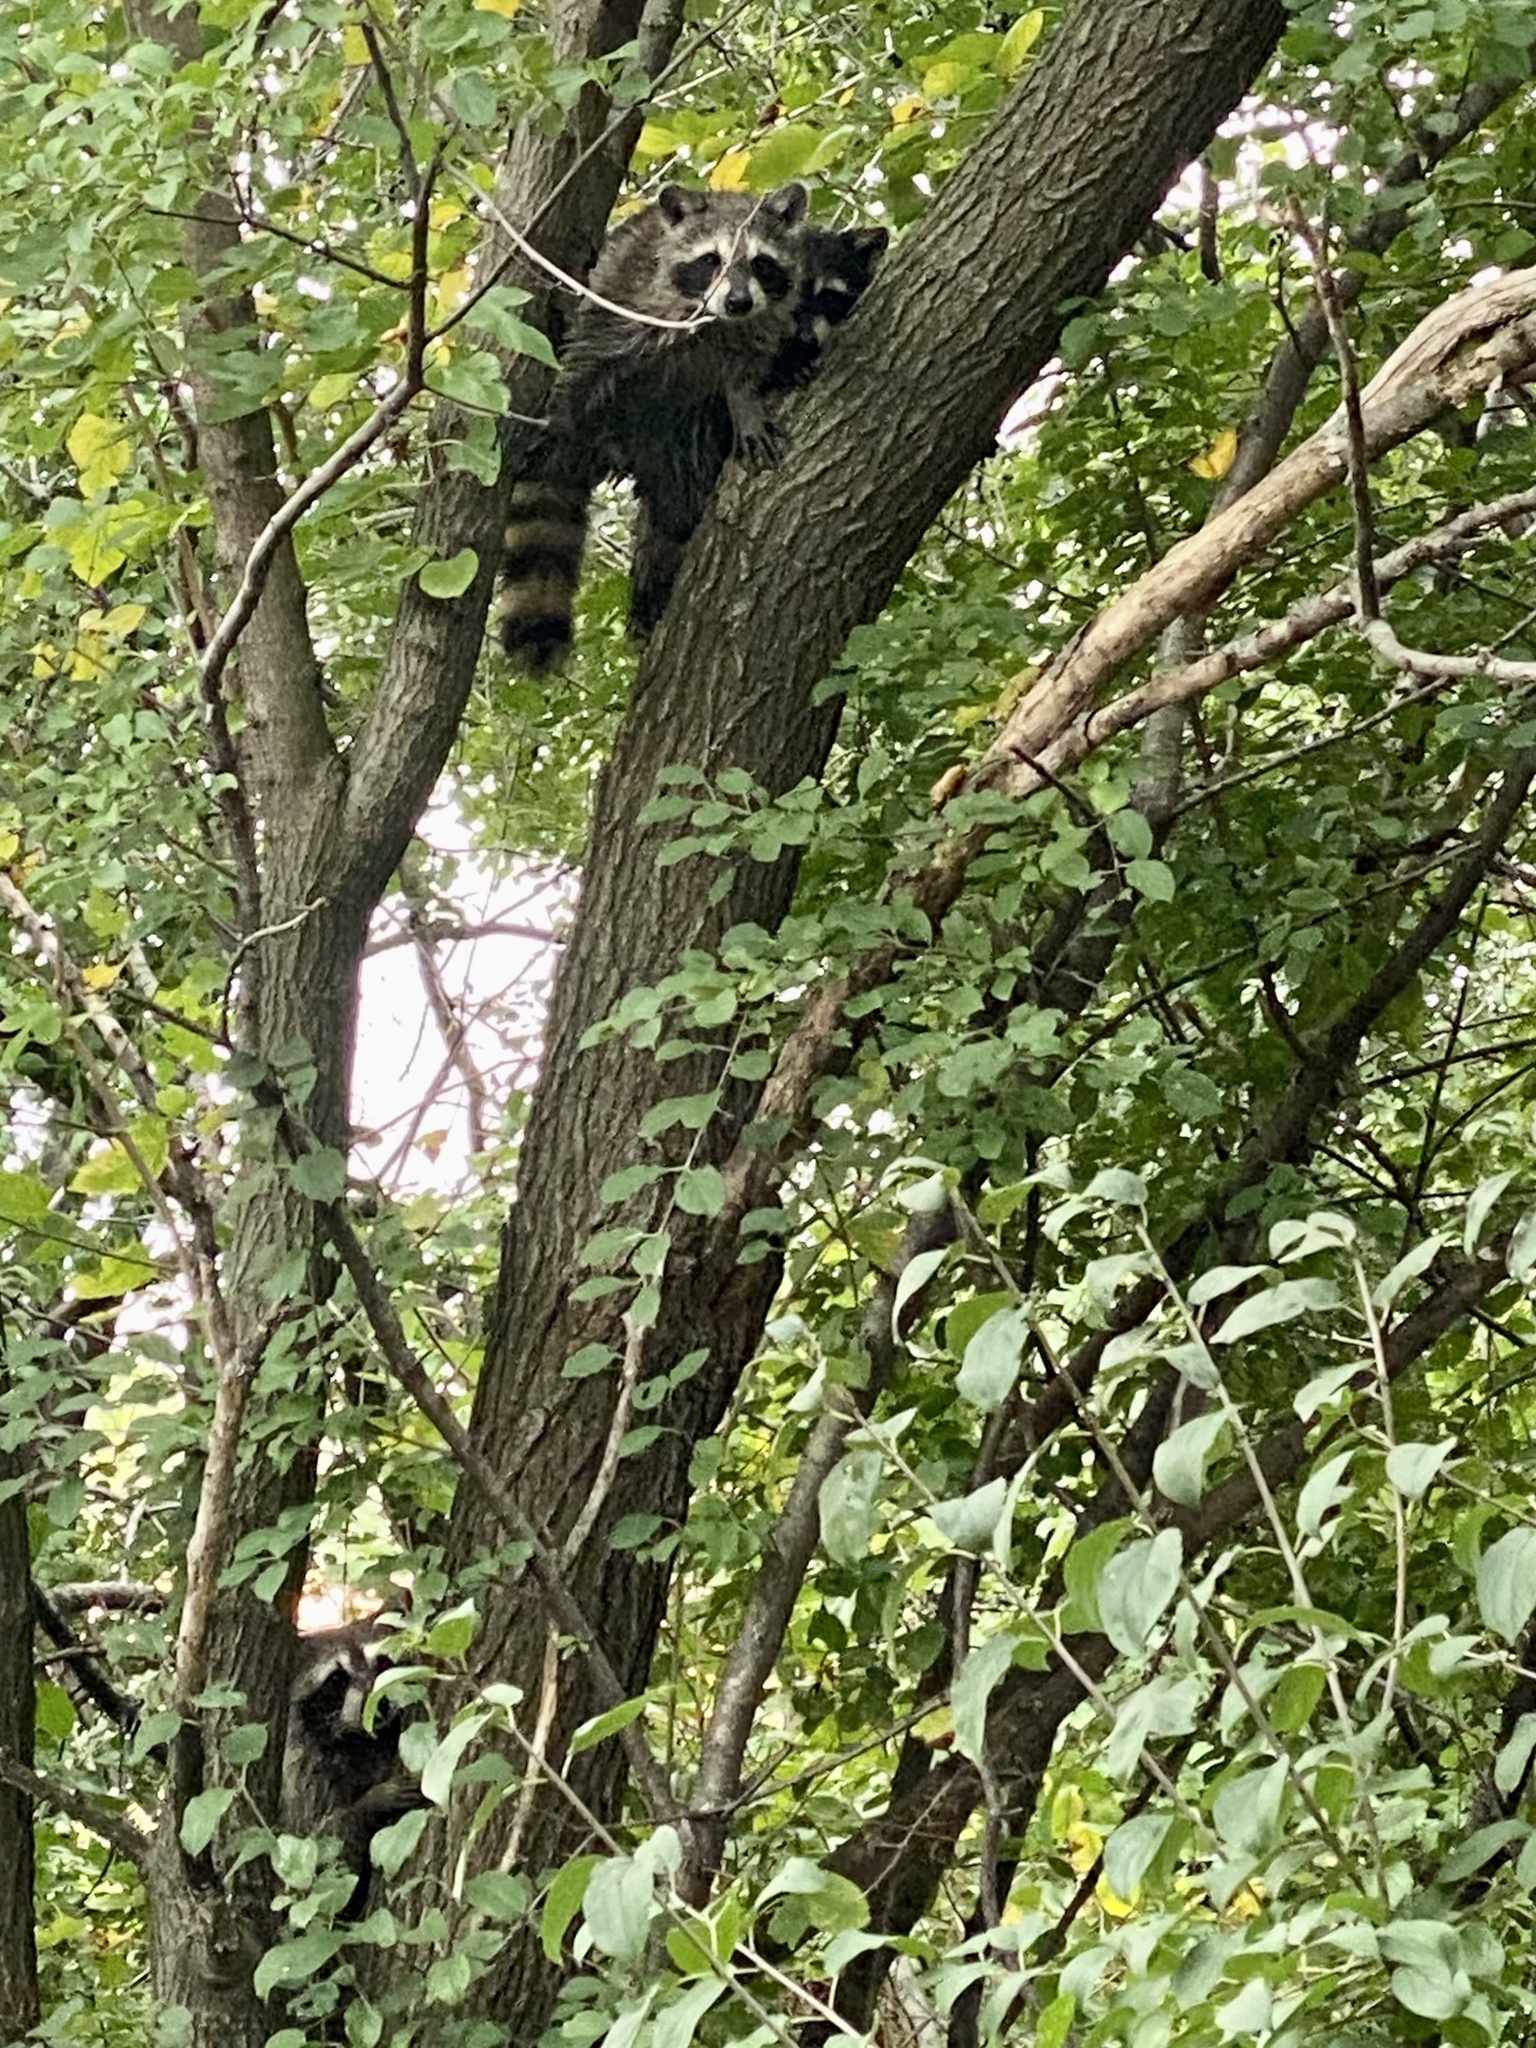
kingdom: Animalia
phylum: Chordata
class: Mammalia
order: Carnivora
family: Procyonidae
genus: Procyon
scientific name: Procyon lotor
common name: Raccoon
